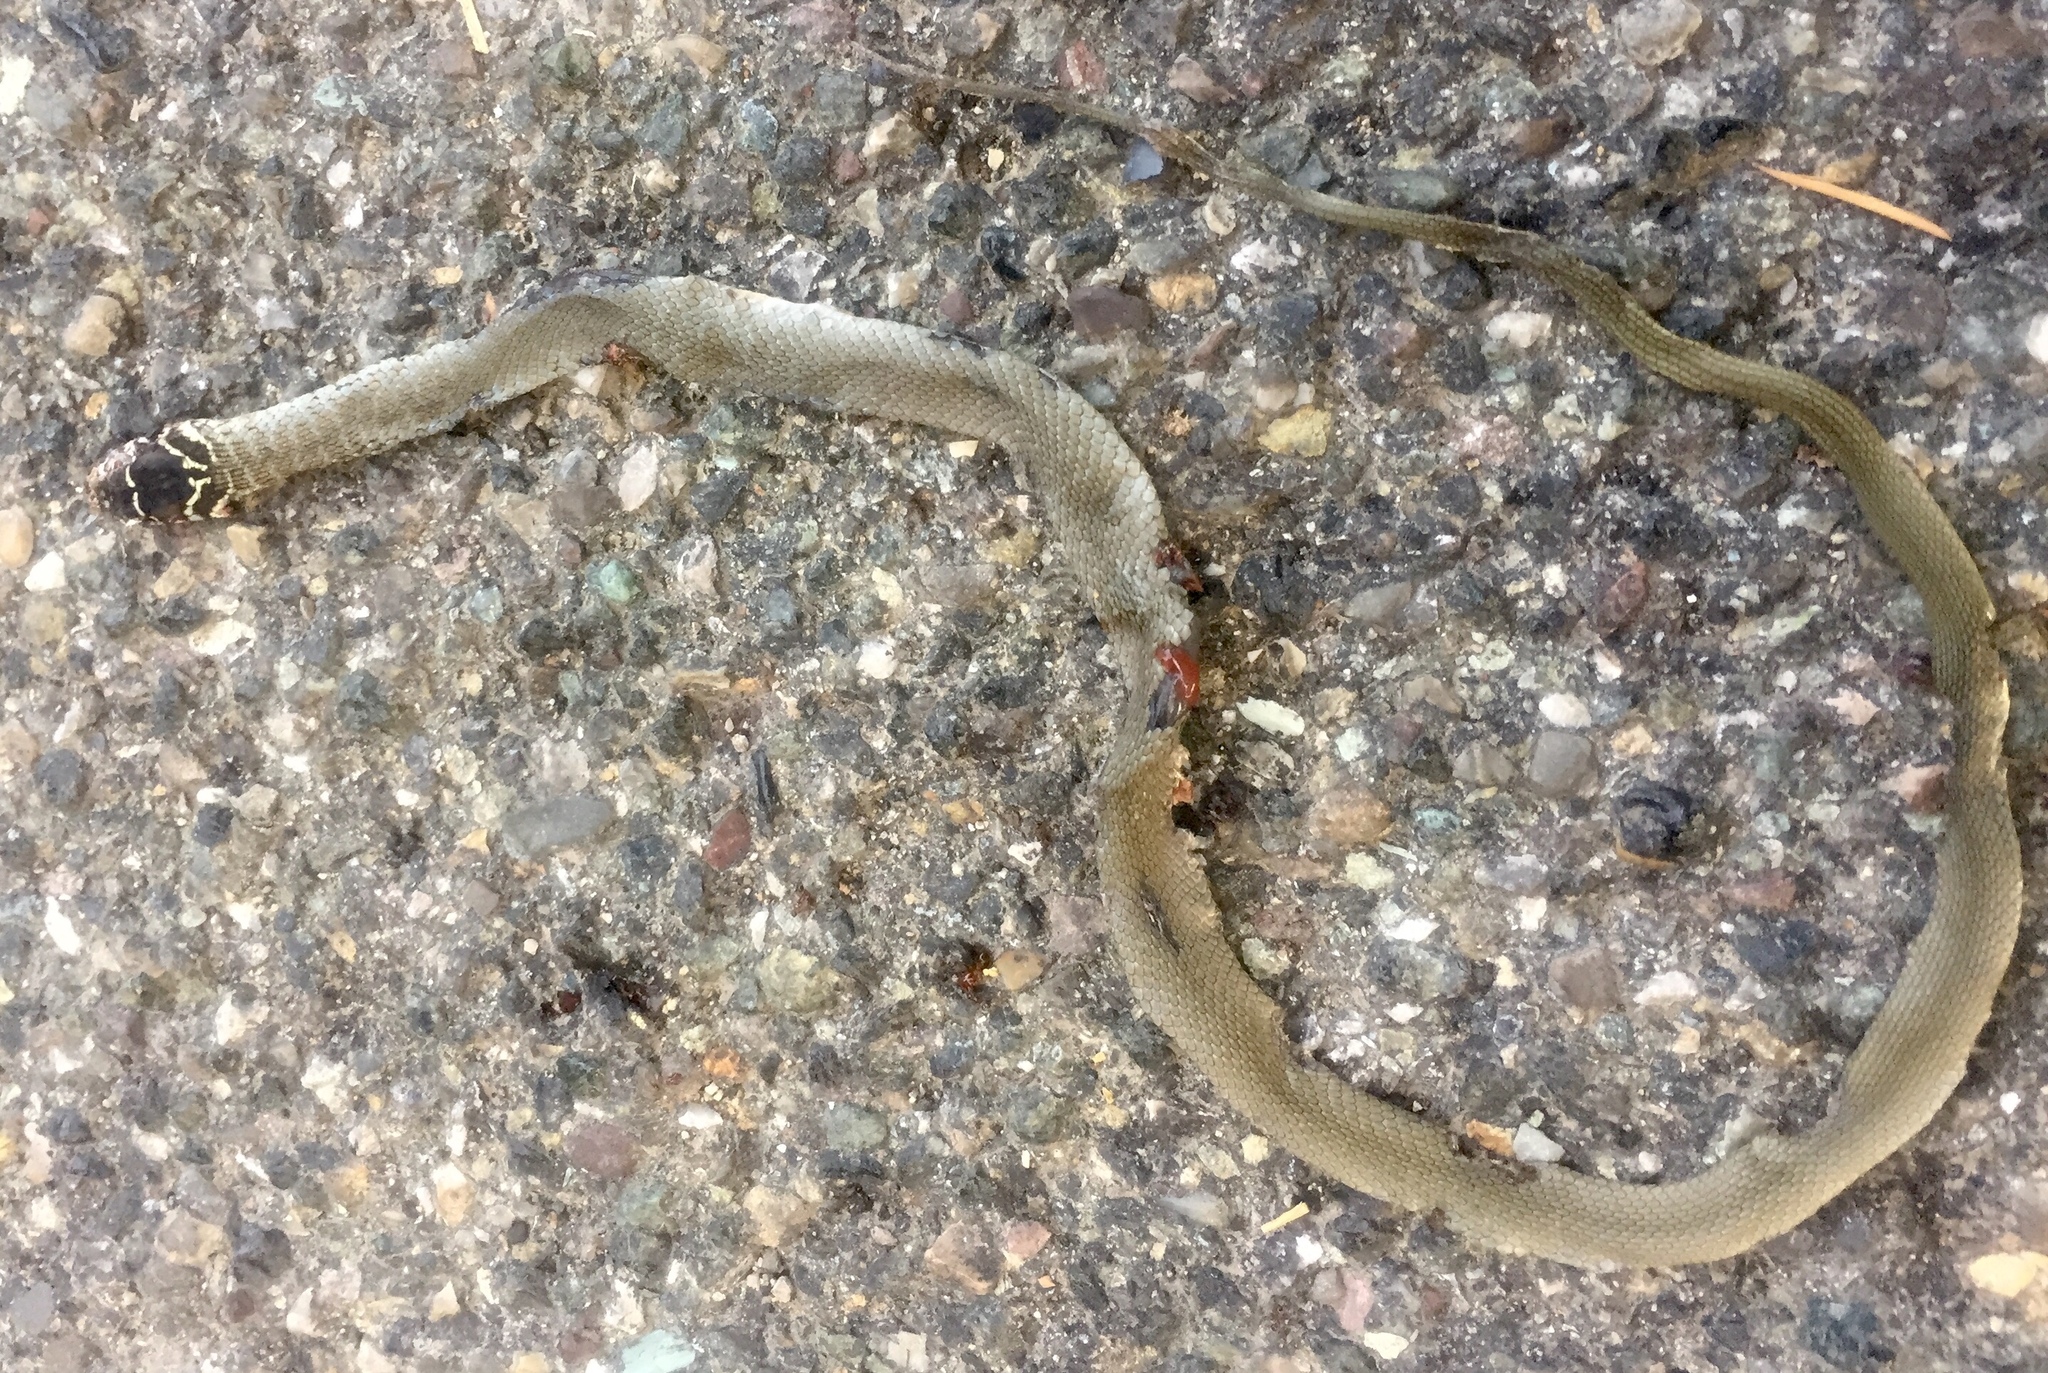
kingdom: Animalia
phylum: Chordata
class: Squamata
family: Colubridae
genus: Hierophis
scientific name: Hierophis viridiflavus
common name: Green whip snake
